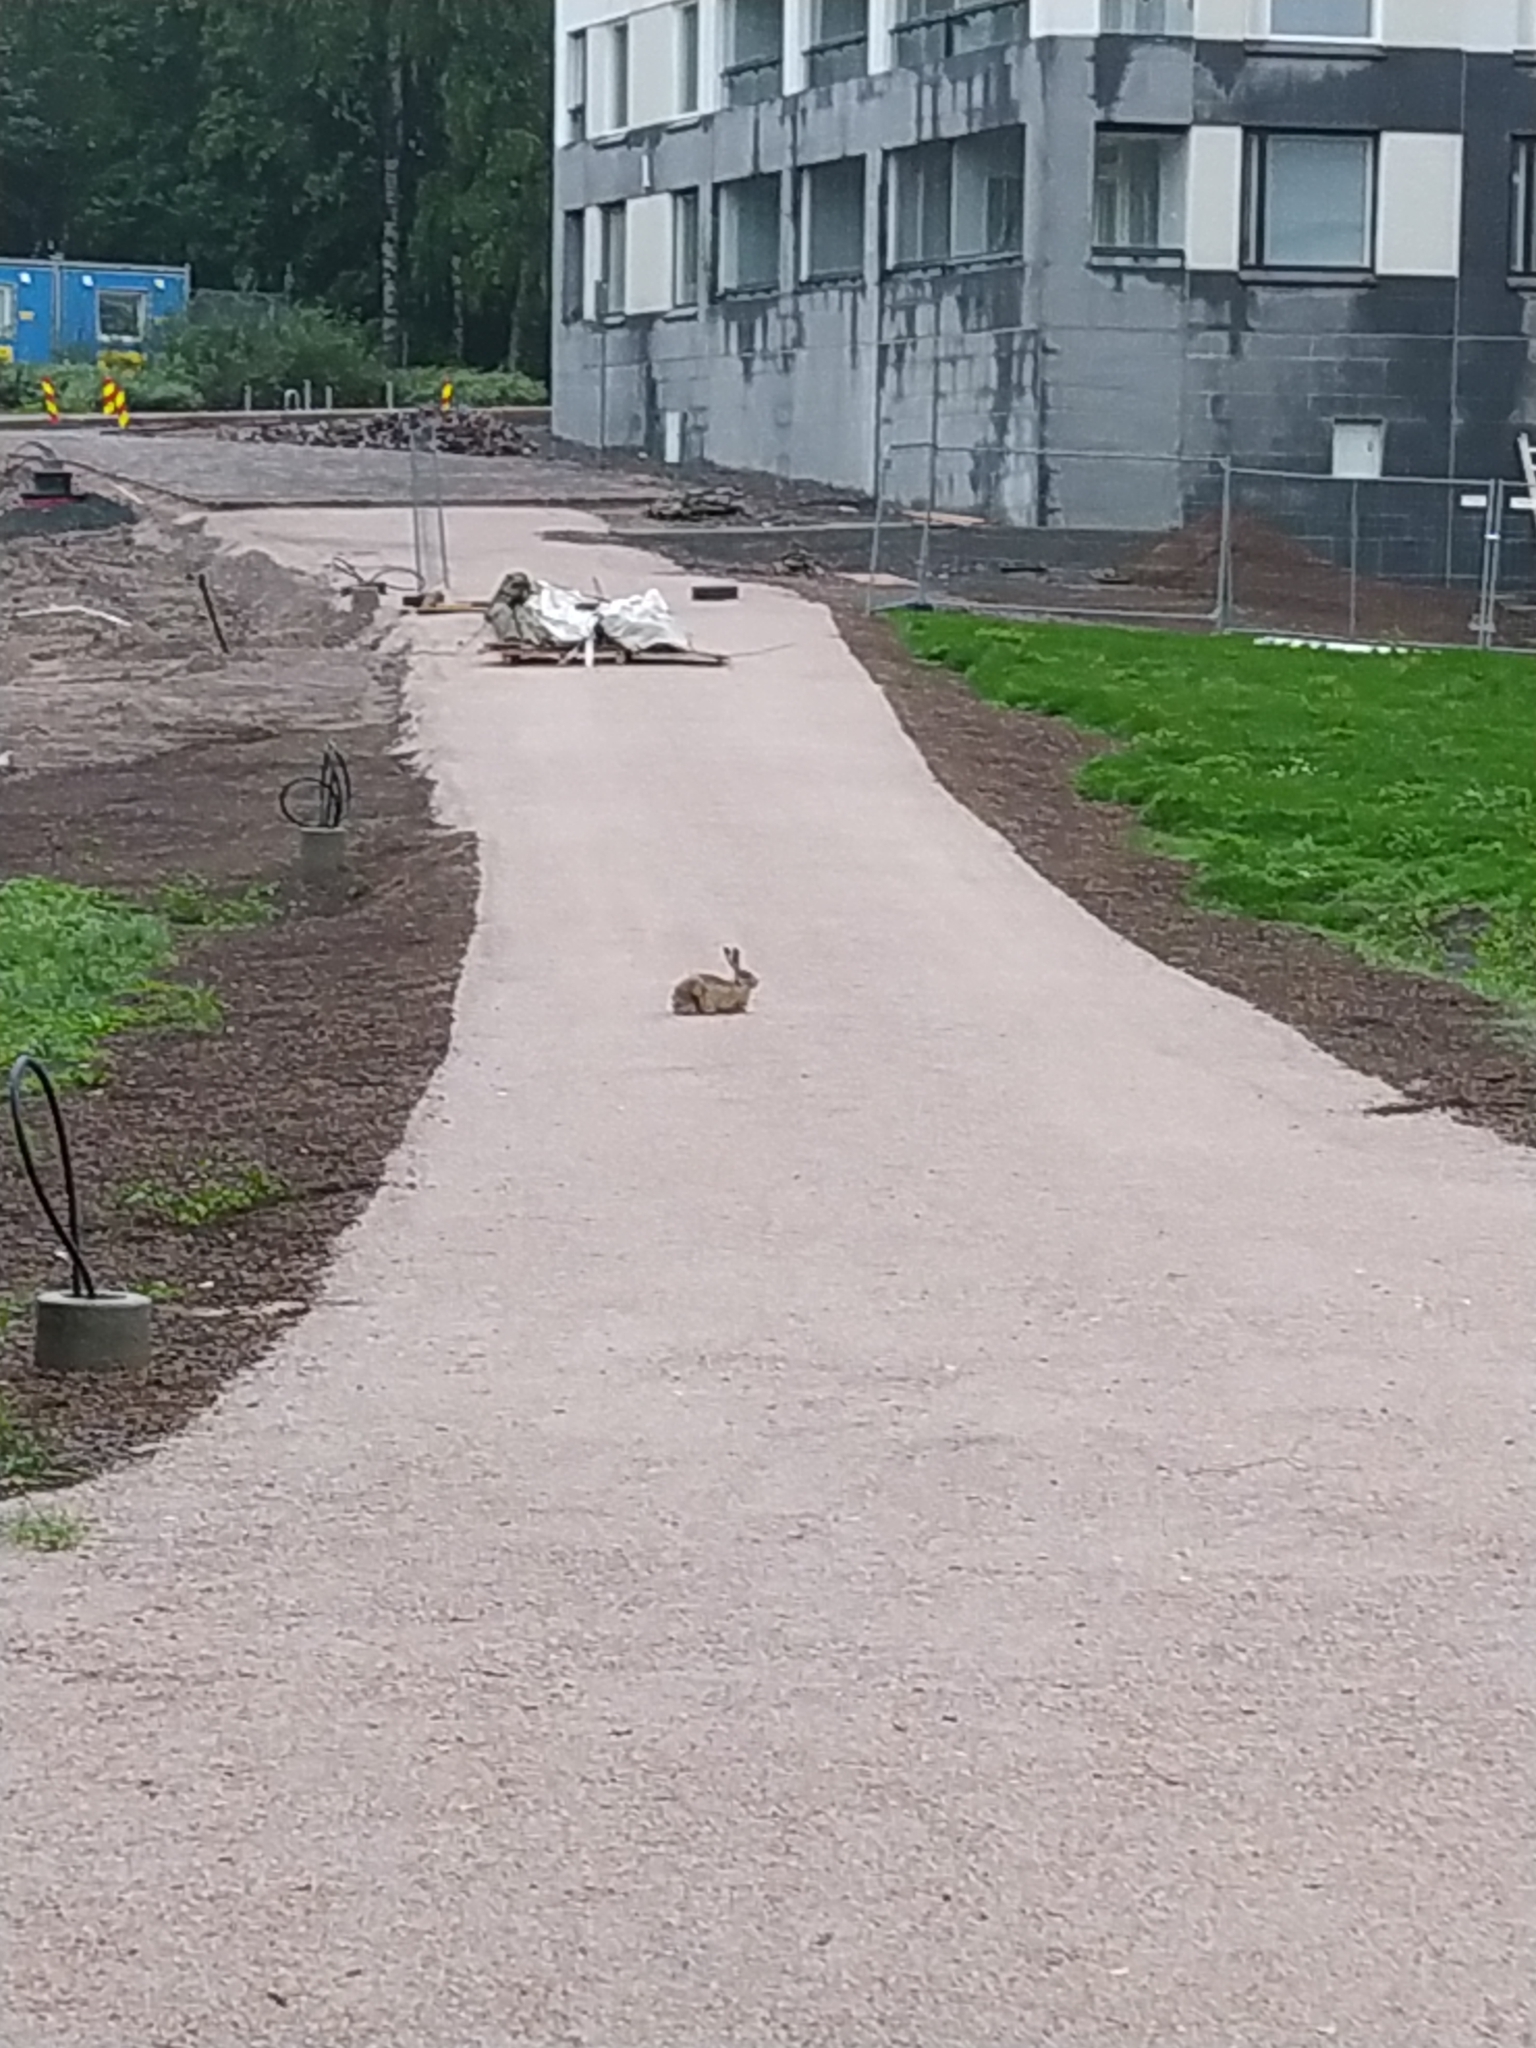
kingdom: Animalia
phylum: Chordata
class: Mammalia
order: Lagomorpha
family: Leporidae
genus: Lepus
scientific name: Lepus europaeus
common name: European hare
